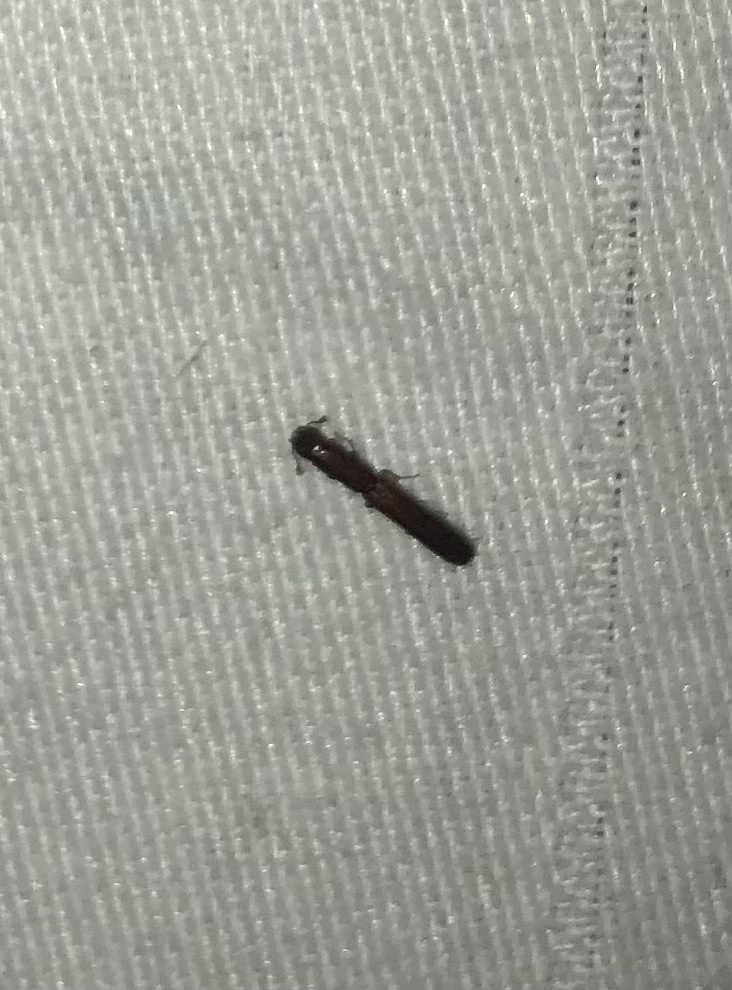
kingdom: Animalia
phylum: Arthropoda
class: Insecta
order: Coleoptera
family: Zopheridae
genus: Nematidium
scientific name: Nematidium filiforme
